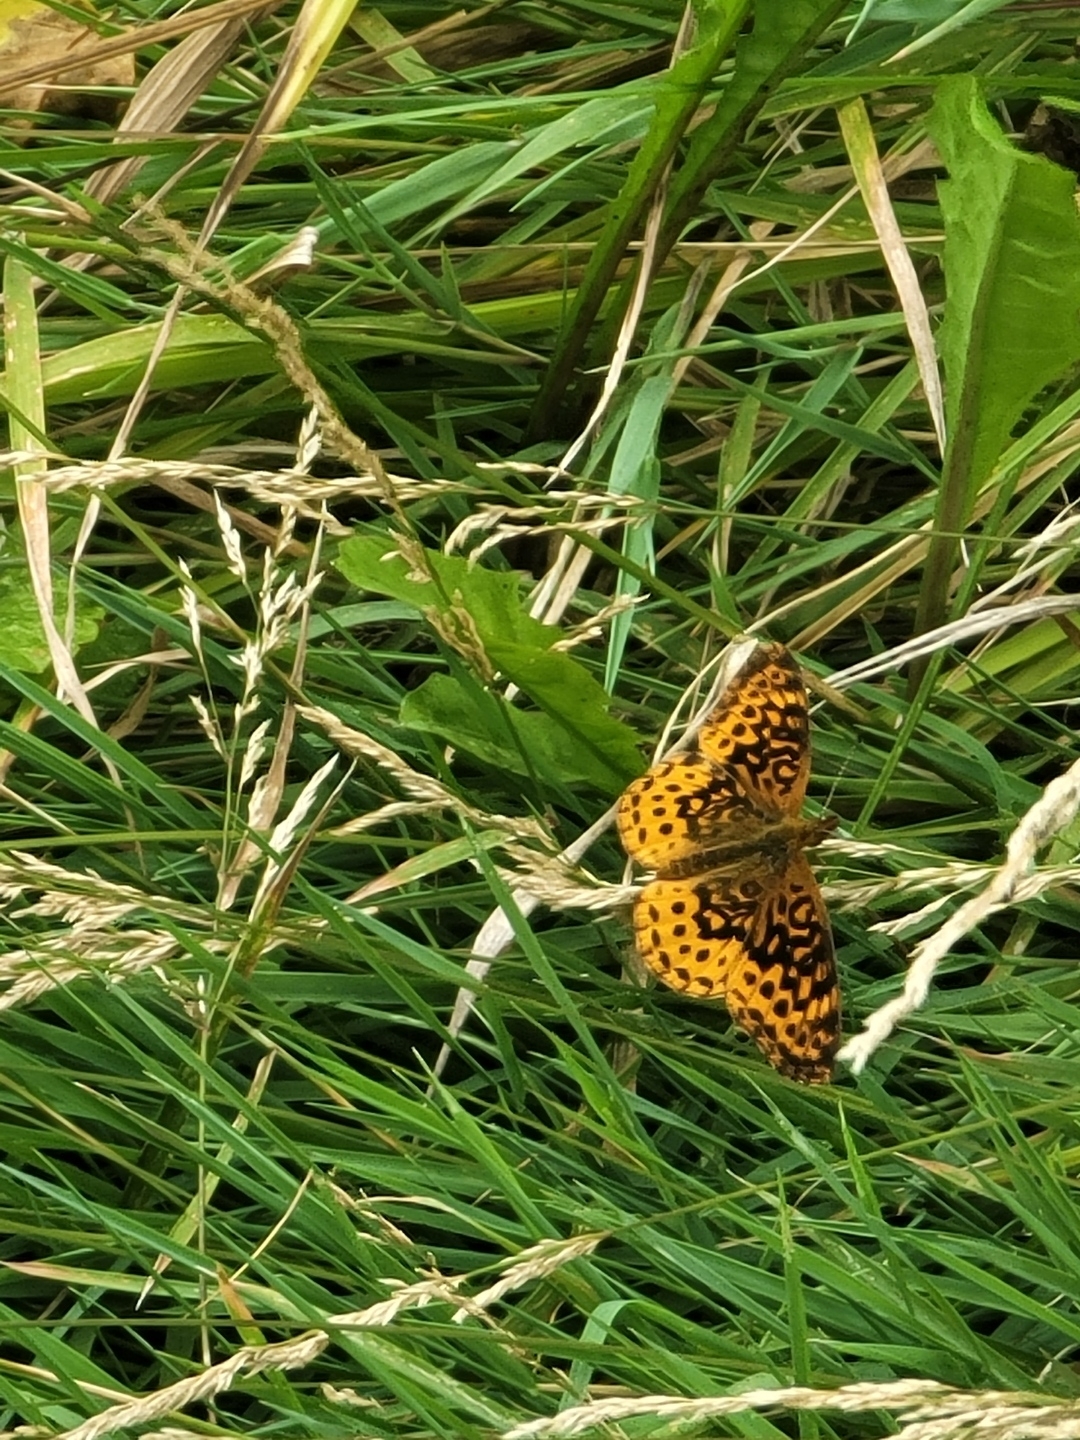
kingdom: Animalia
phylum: Arthropoda
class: Insecta
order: Lepidoptera
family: Nymphalidae
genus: Clossiana
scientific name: Clossiana toddi
